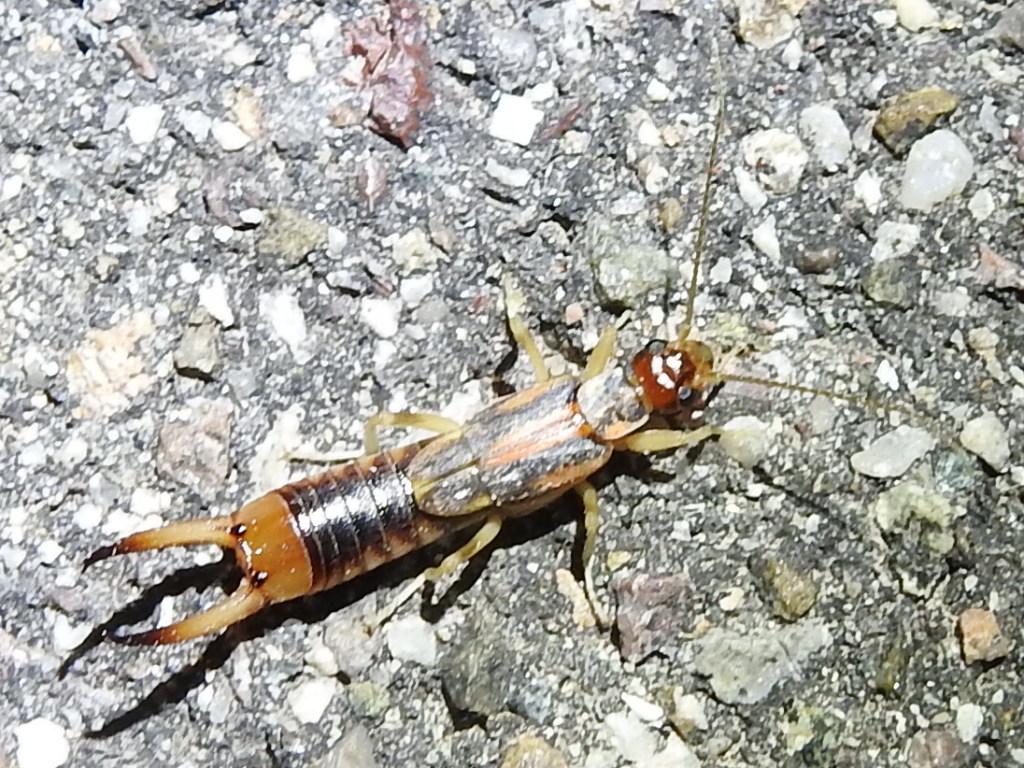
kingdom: Animalia
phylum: Arthropoda
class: Insecta
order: Dermaptera
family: Labiduridae
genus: Labidura
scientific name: Labidura riparia
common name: Striped earwig
